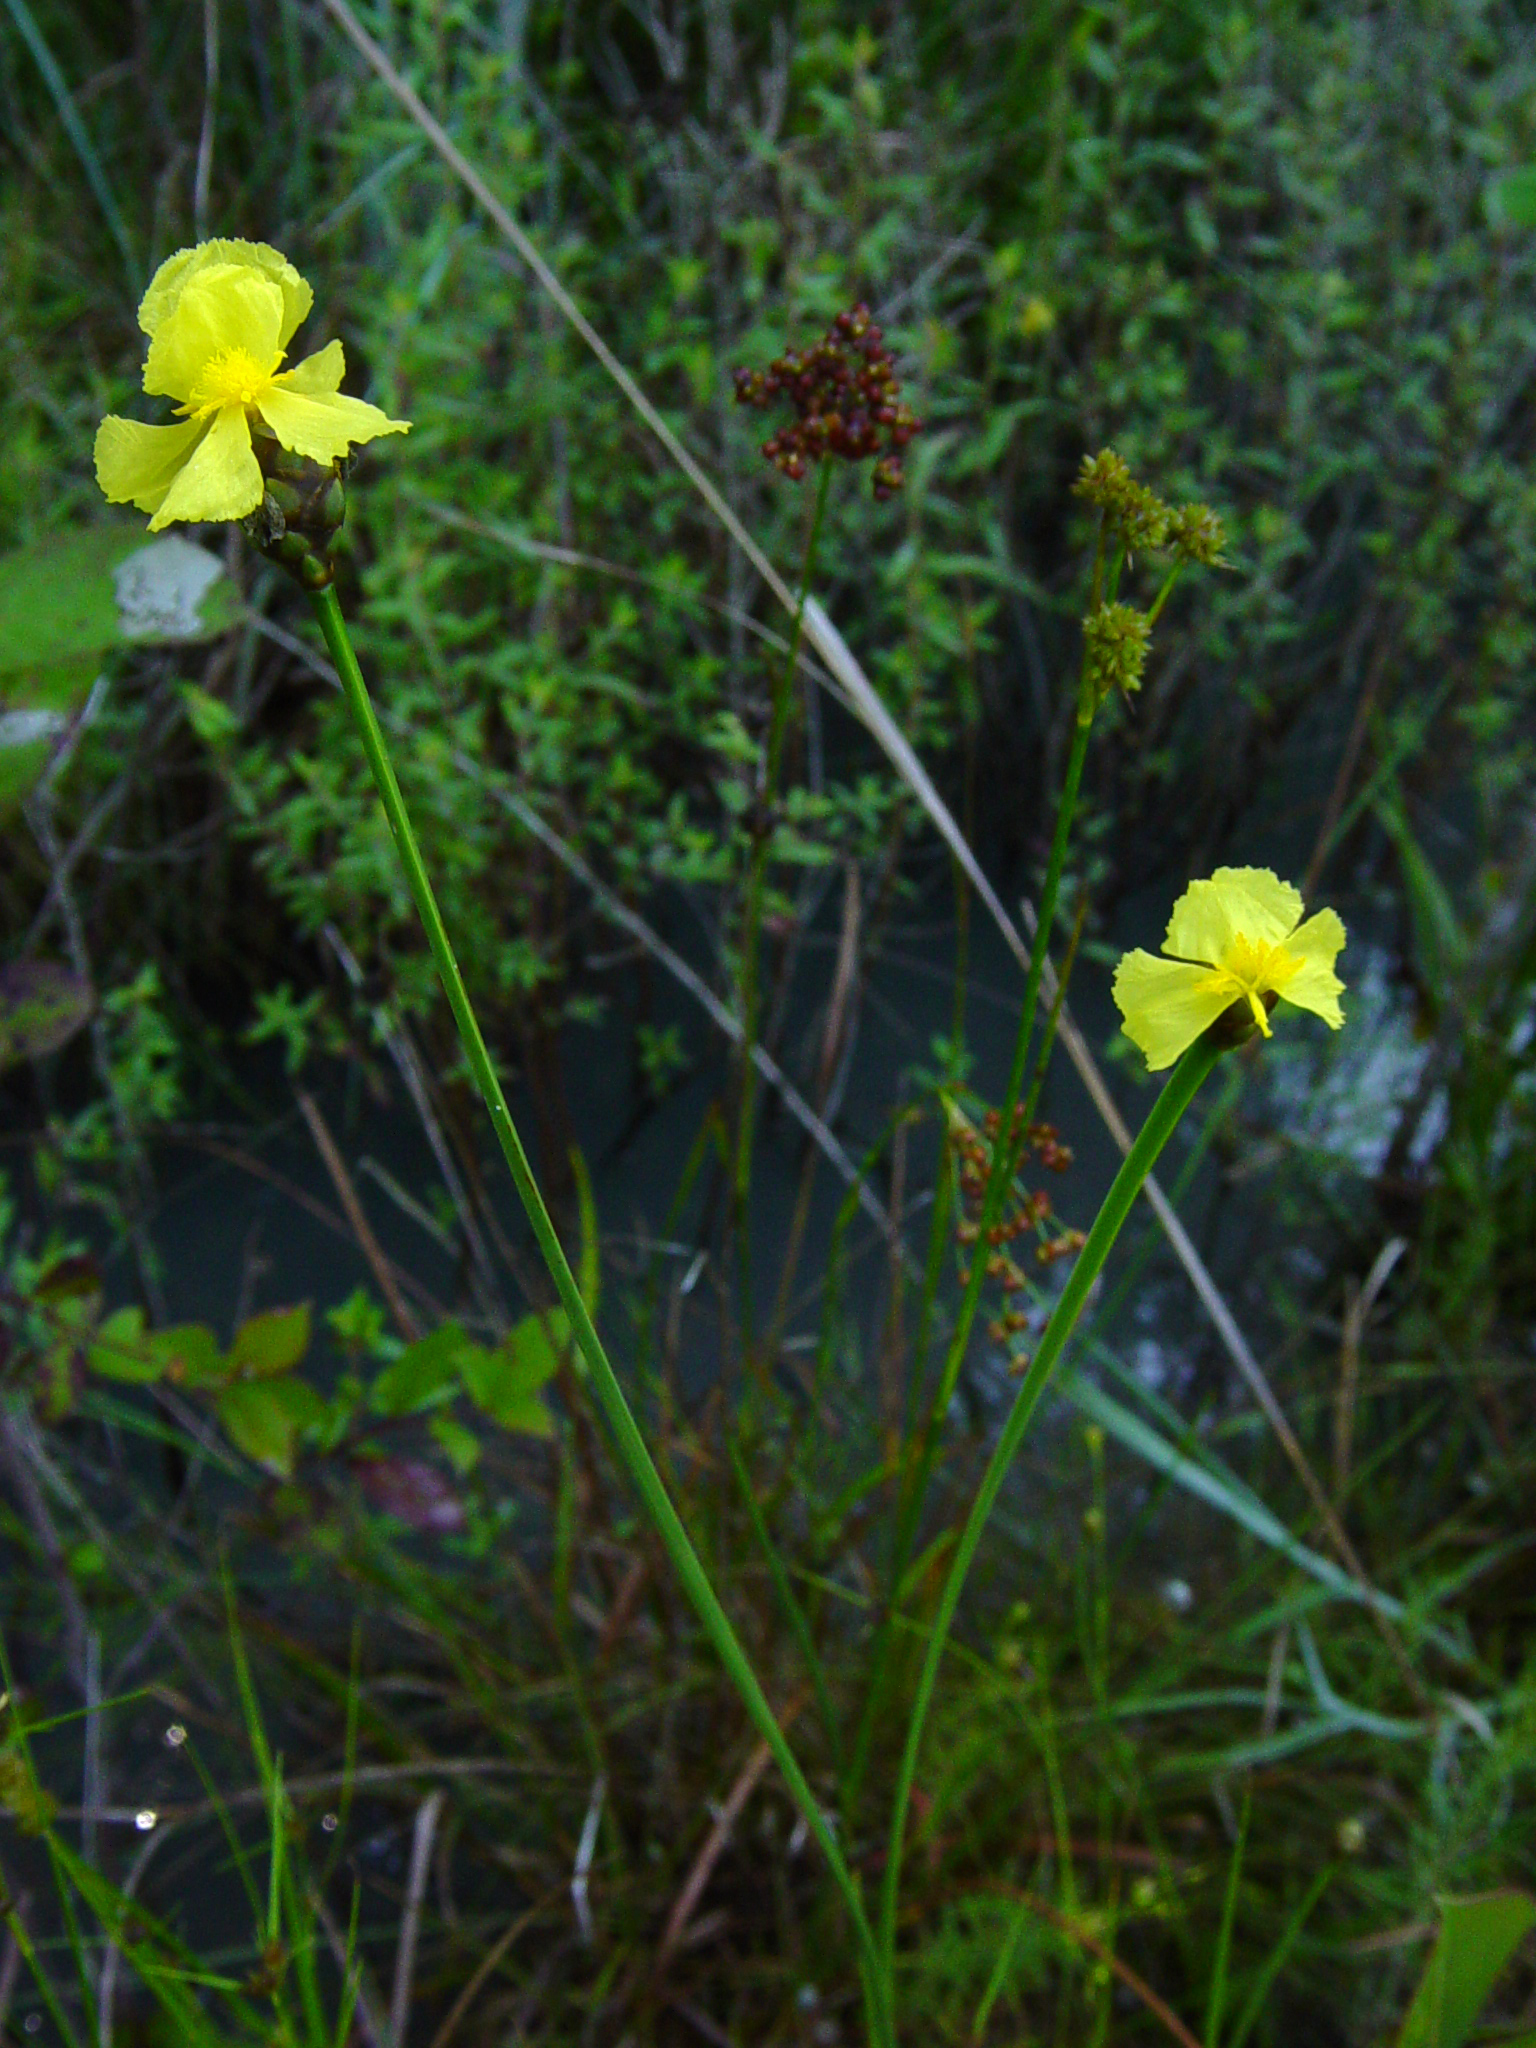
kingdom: Plantae
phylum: Tracheophyta
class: Liliopsida
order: Poales
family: Xyridaceae
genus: Xyris
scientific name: Xyris ambigua
